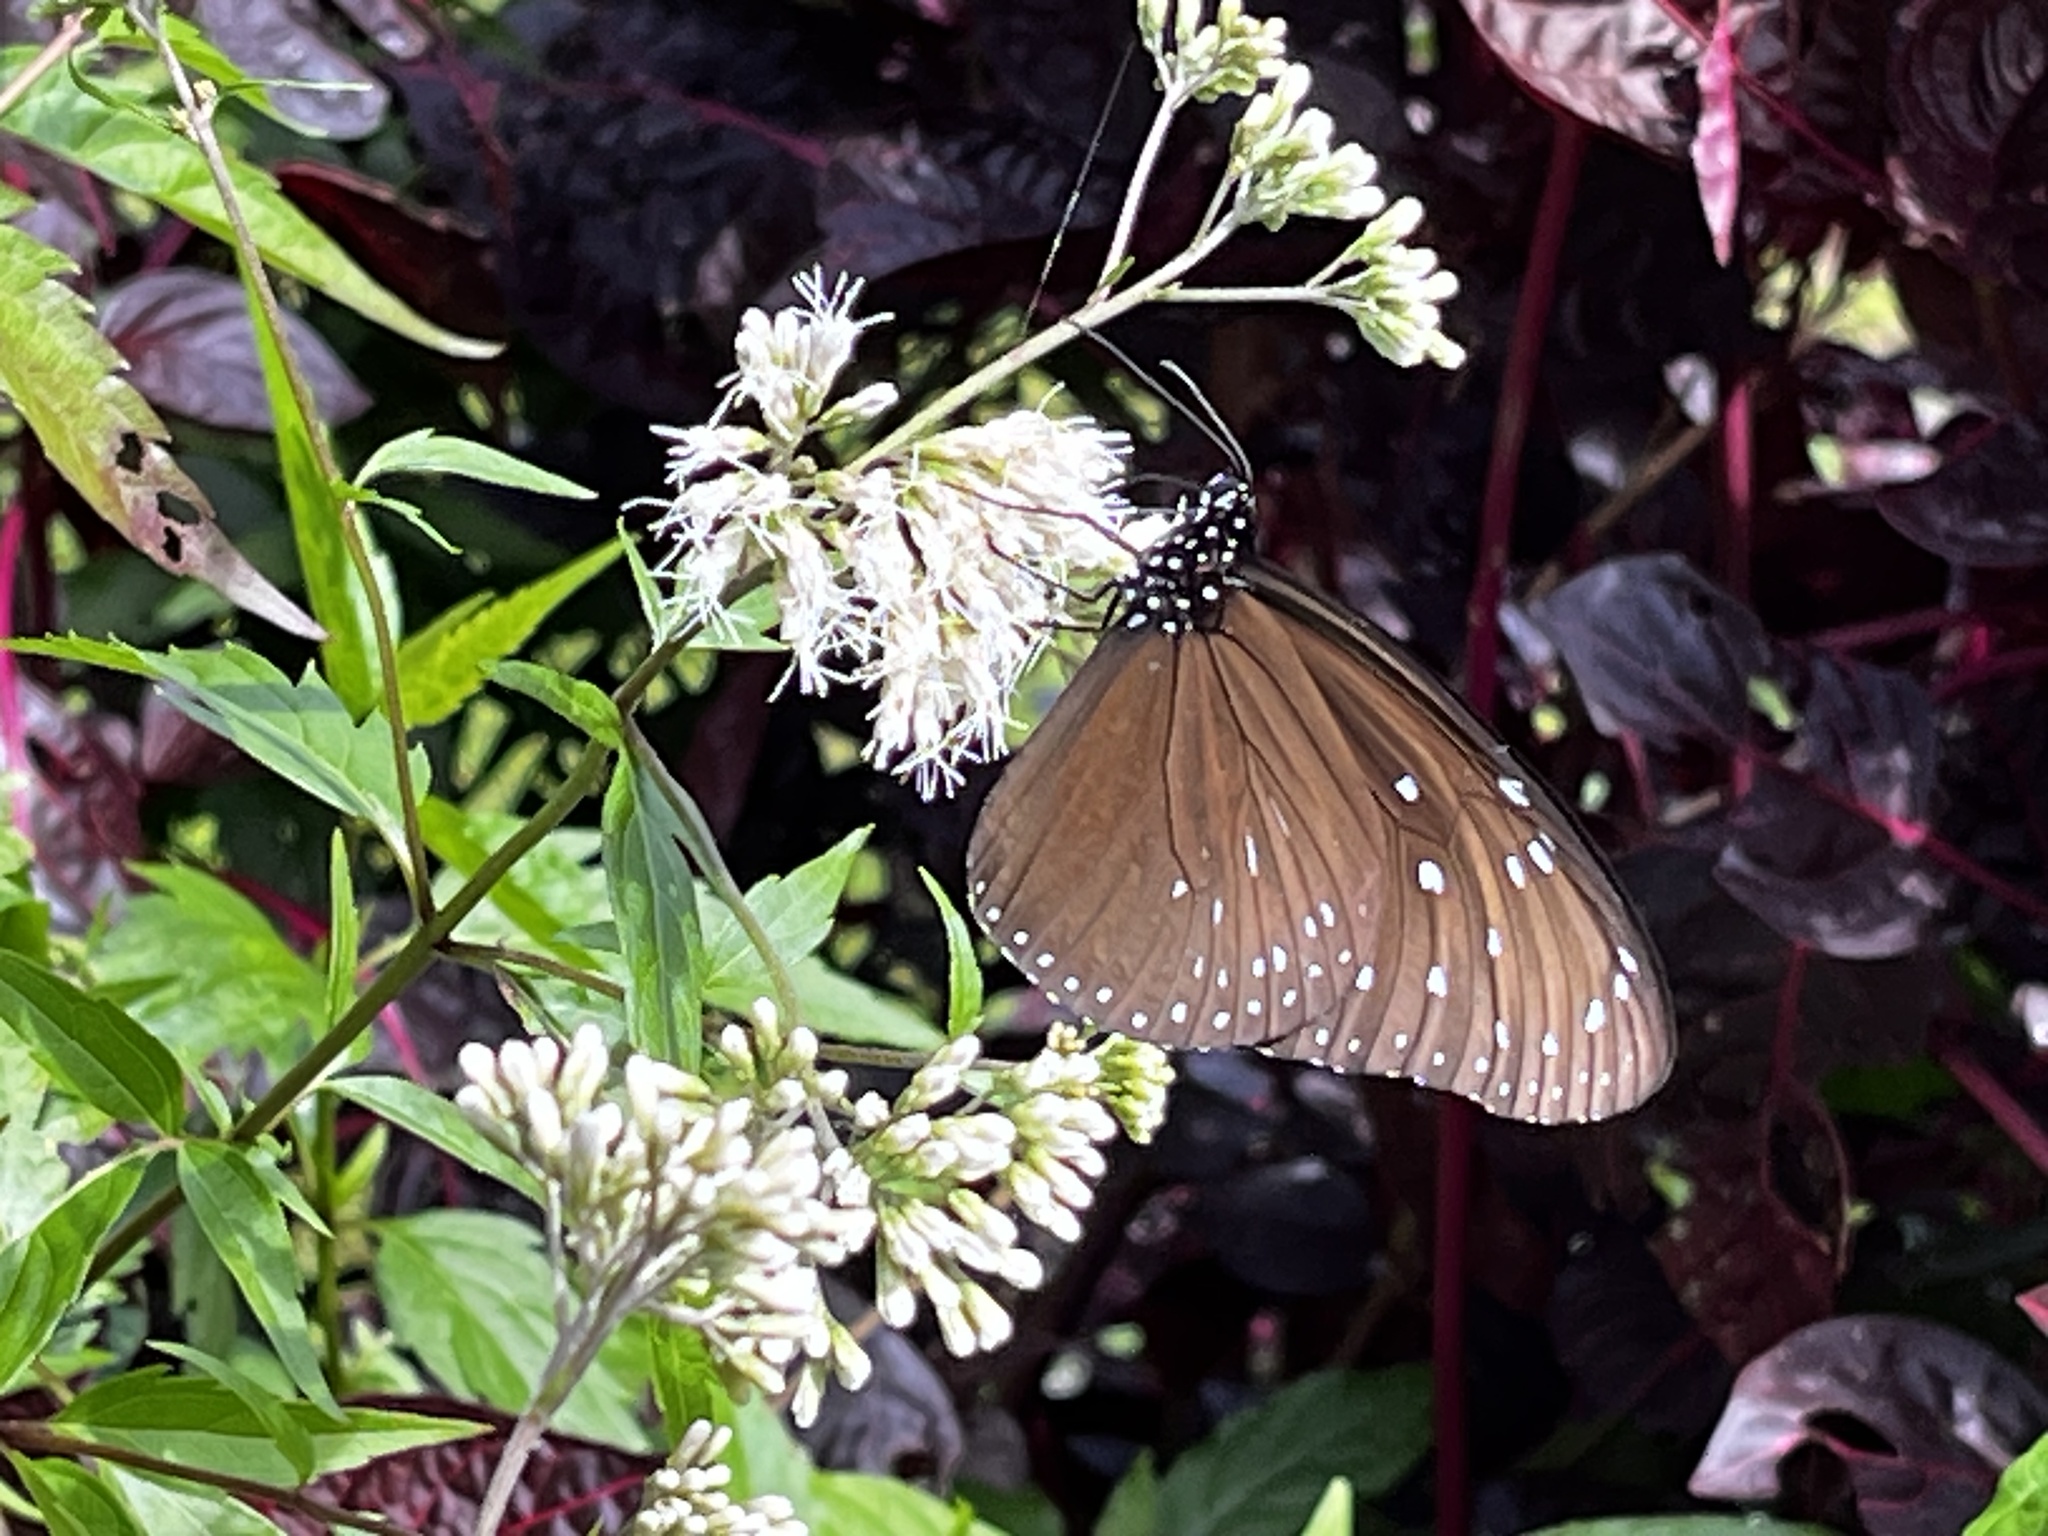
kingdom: Animalia
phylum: Arthropoda
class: Insecta
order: Lepidoptera
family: Nymphalidae
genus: Euploea
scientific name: Euploea mulciber
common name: Striped blue crow butterfly
